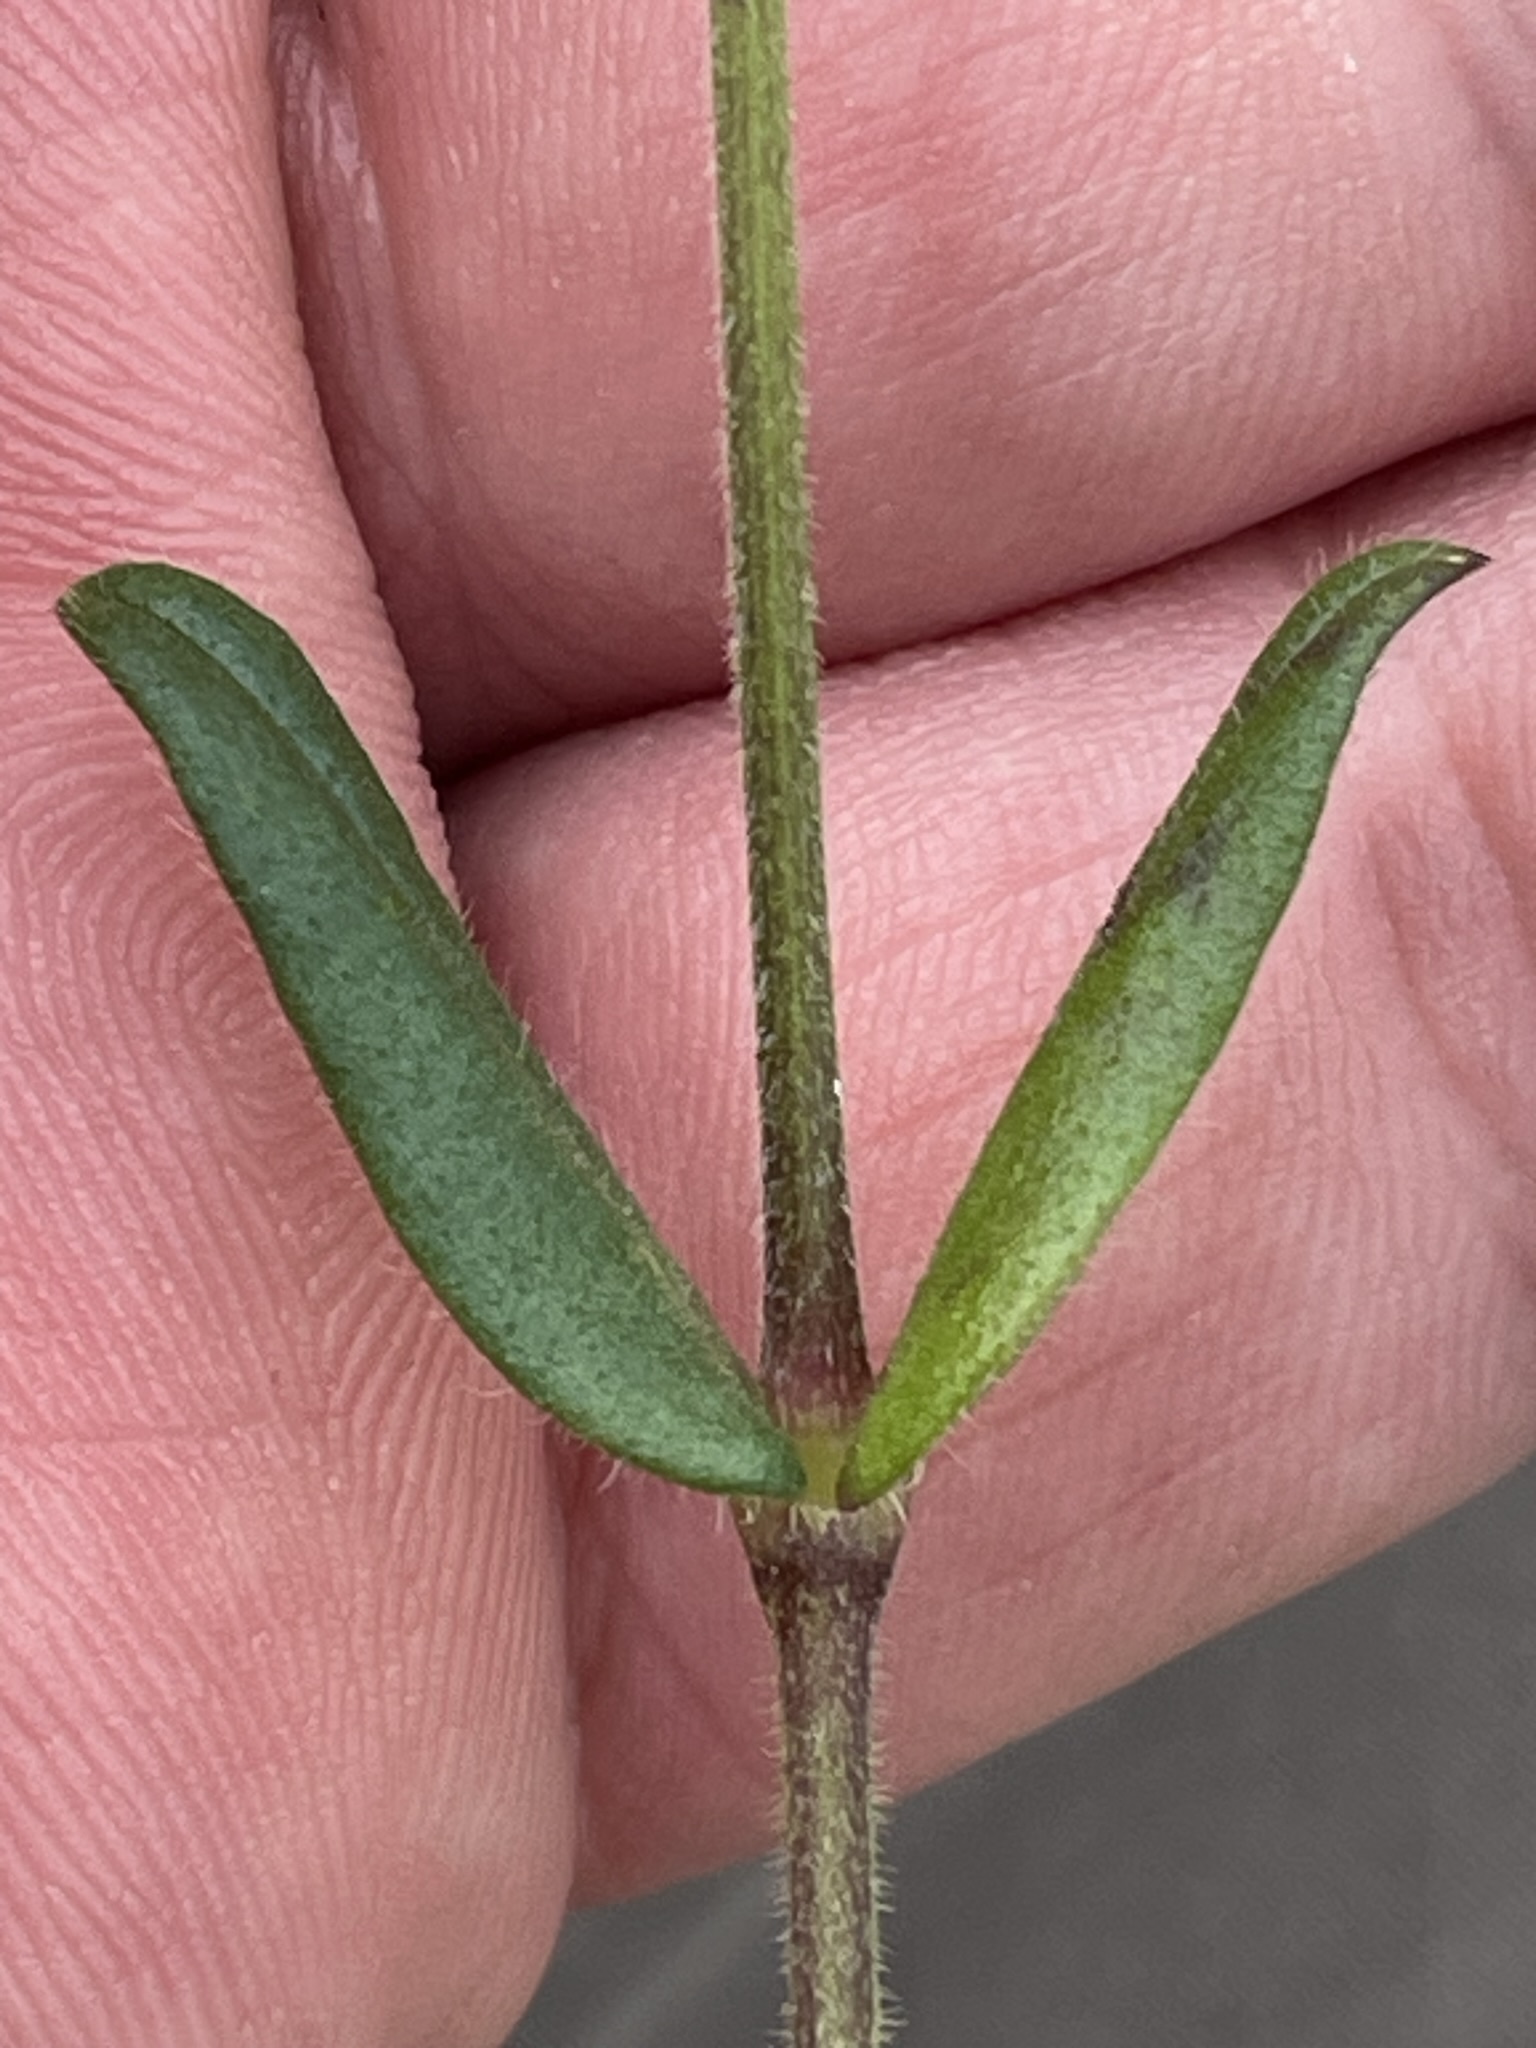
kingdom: Plantae
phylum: Tracheophyta
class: Magnoliopsida
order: Caryophyllales
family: Caryophyllaceae
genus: Cerastium
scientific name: Cerastium holosteoides
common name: Big chickweed
